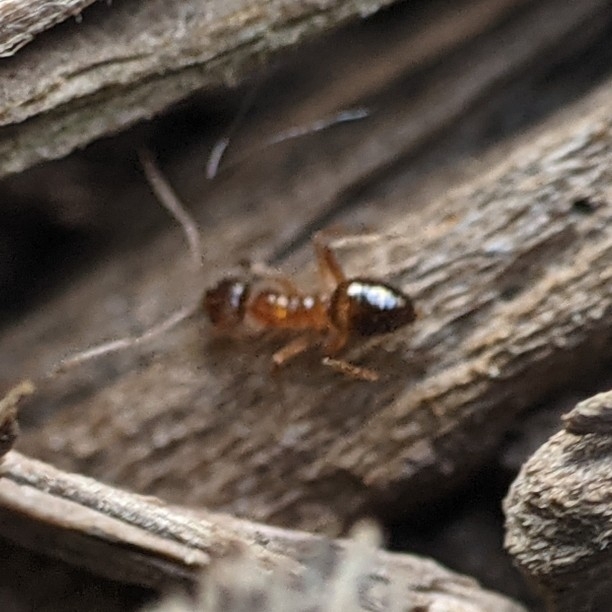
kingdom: Animalia
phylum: Arthropoda
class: Insecta
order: Hymenoptera
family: Formicidae
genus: Paratrechina
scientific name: Paratrechina flavipes
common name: Eastern asian formicine ant
